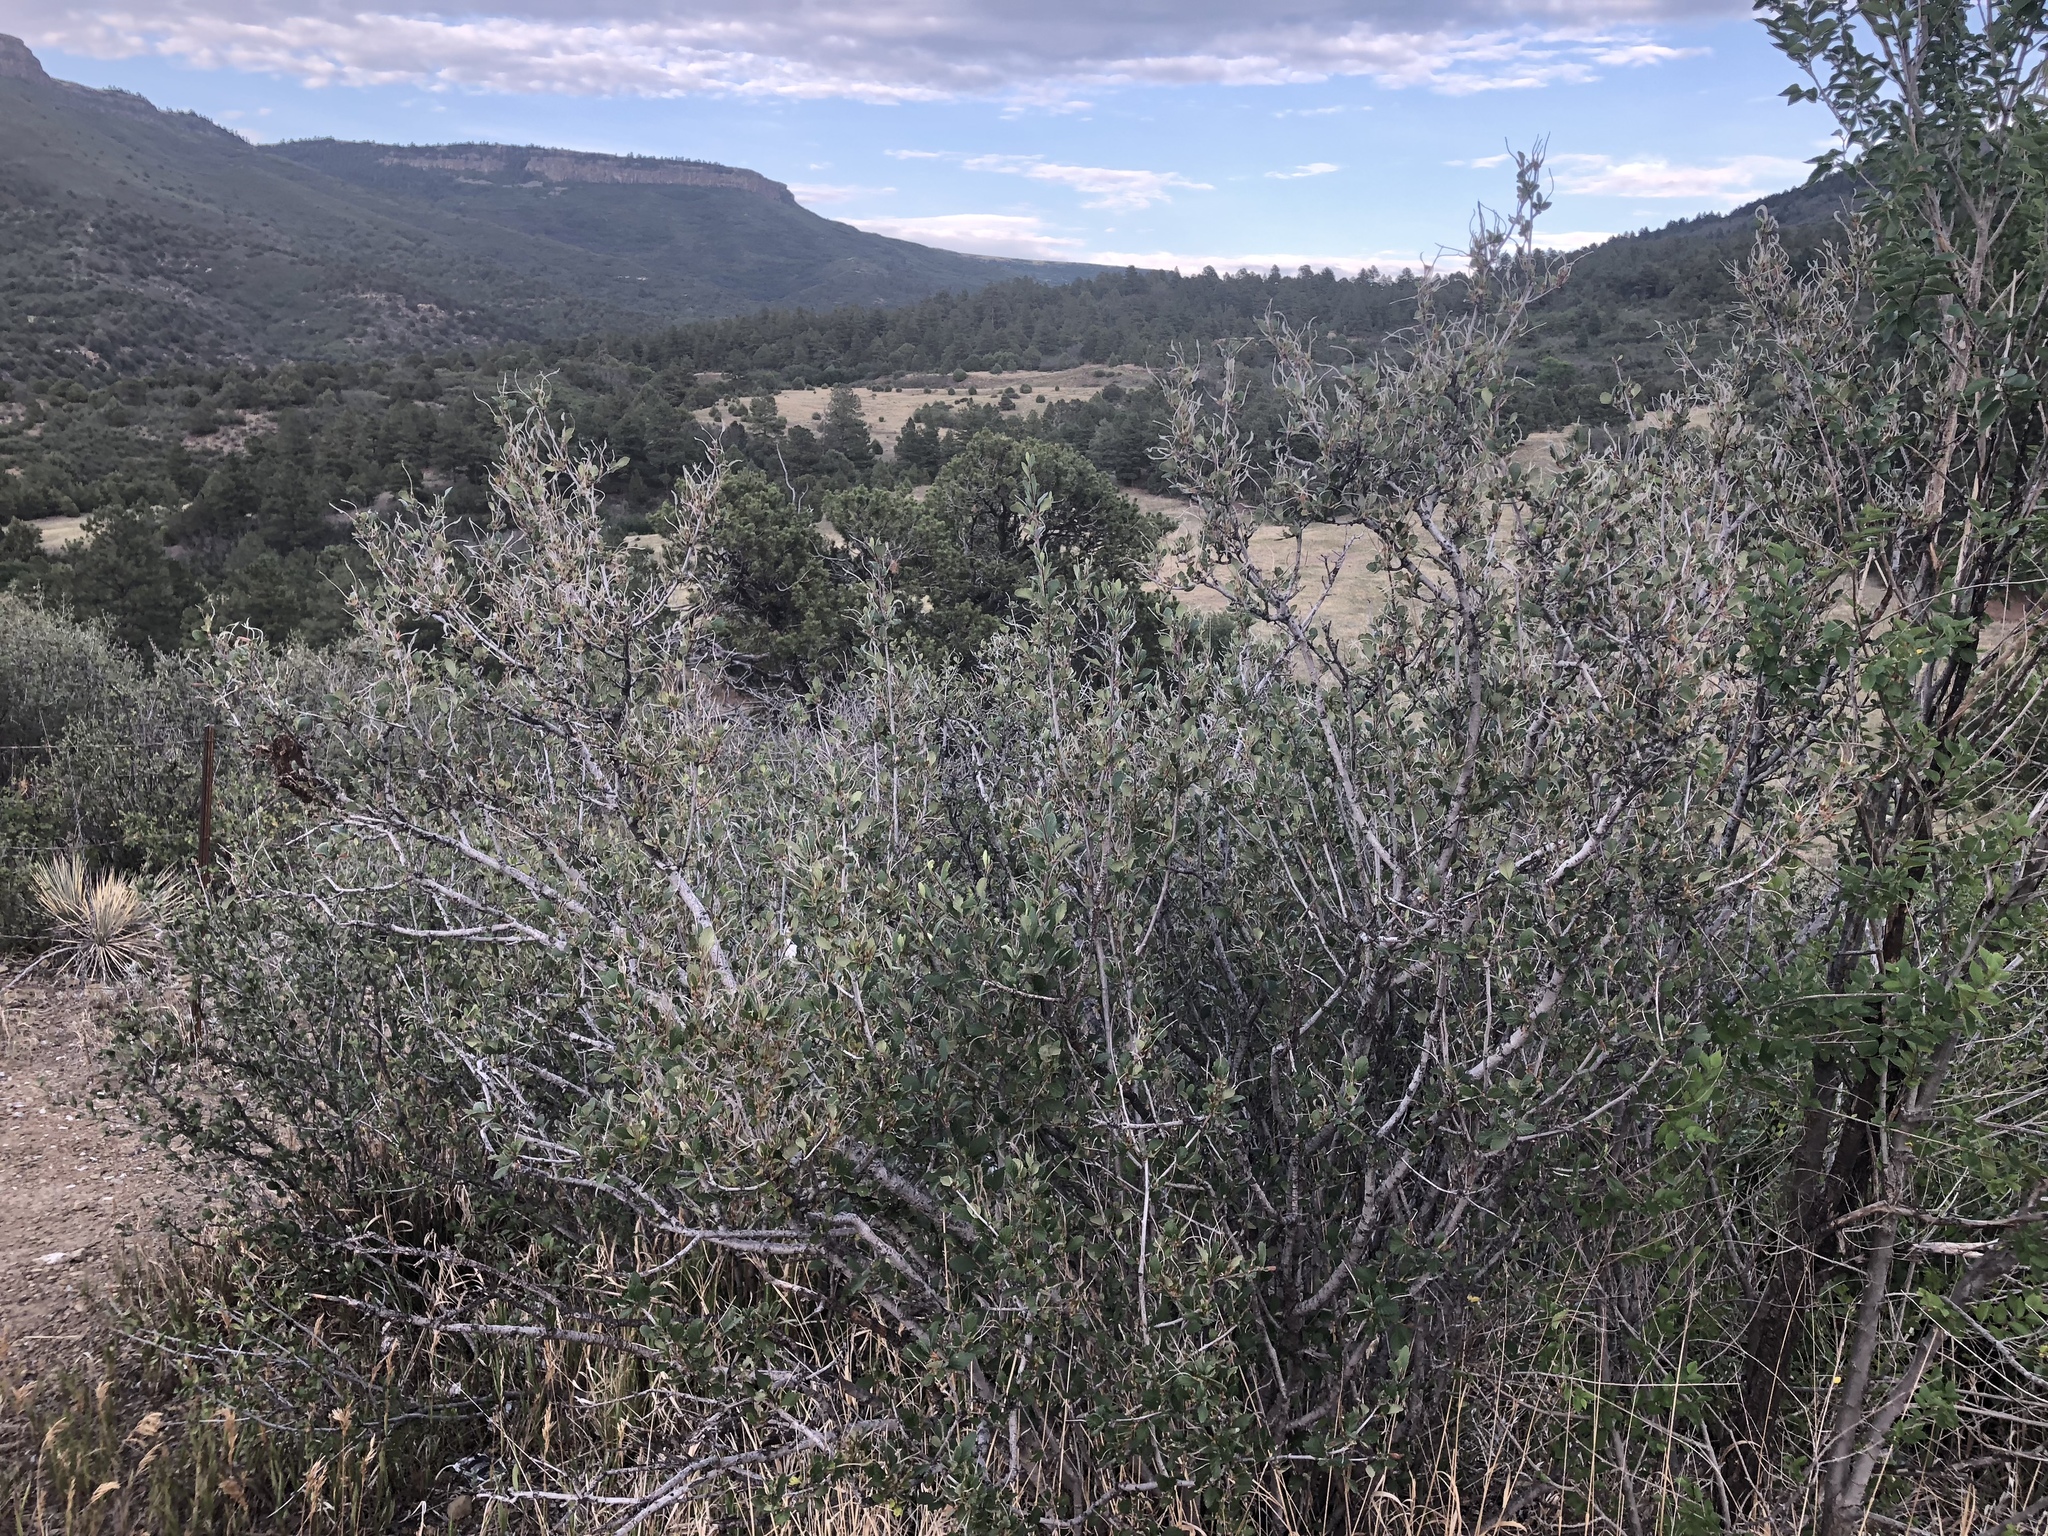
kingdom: Plantae
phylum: Tracheophyta
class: Magnoliopsida
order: Rosales
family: Rosaceae
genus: Cercocarpus
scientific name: Cercocarpus montanus
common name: Alder-leaf cercocarpus
